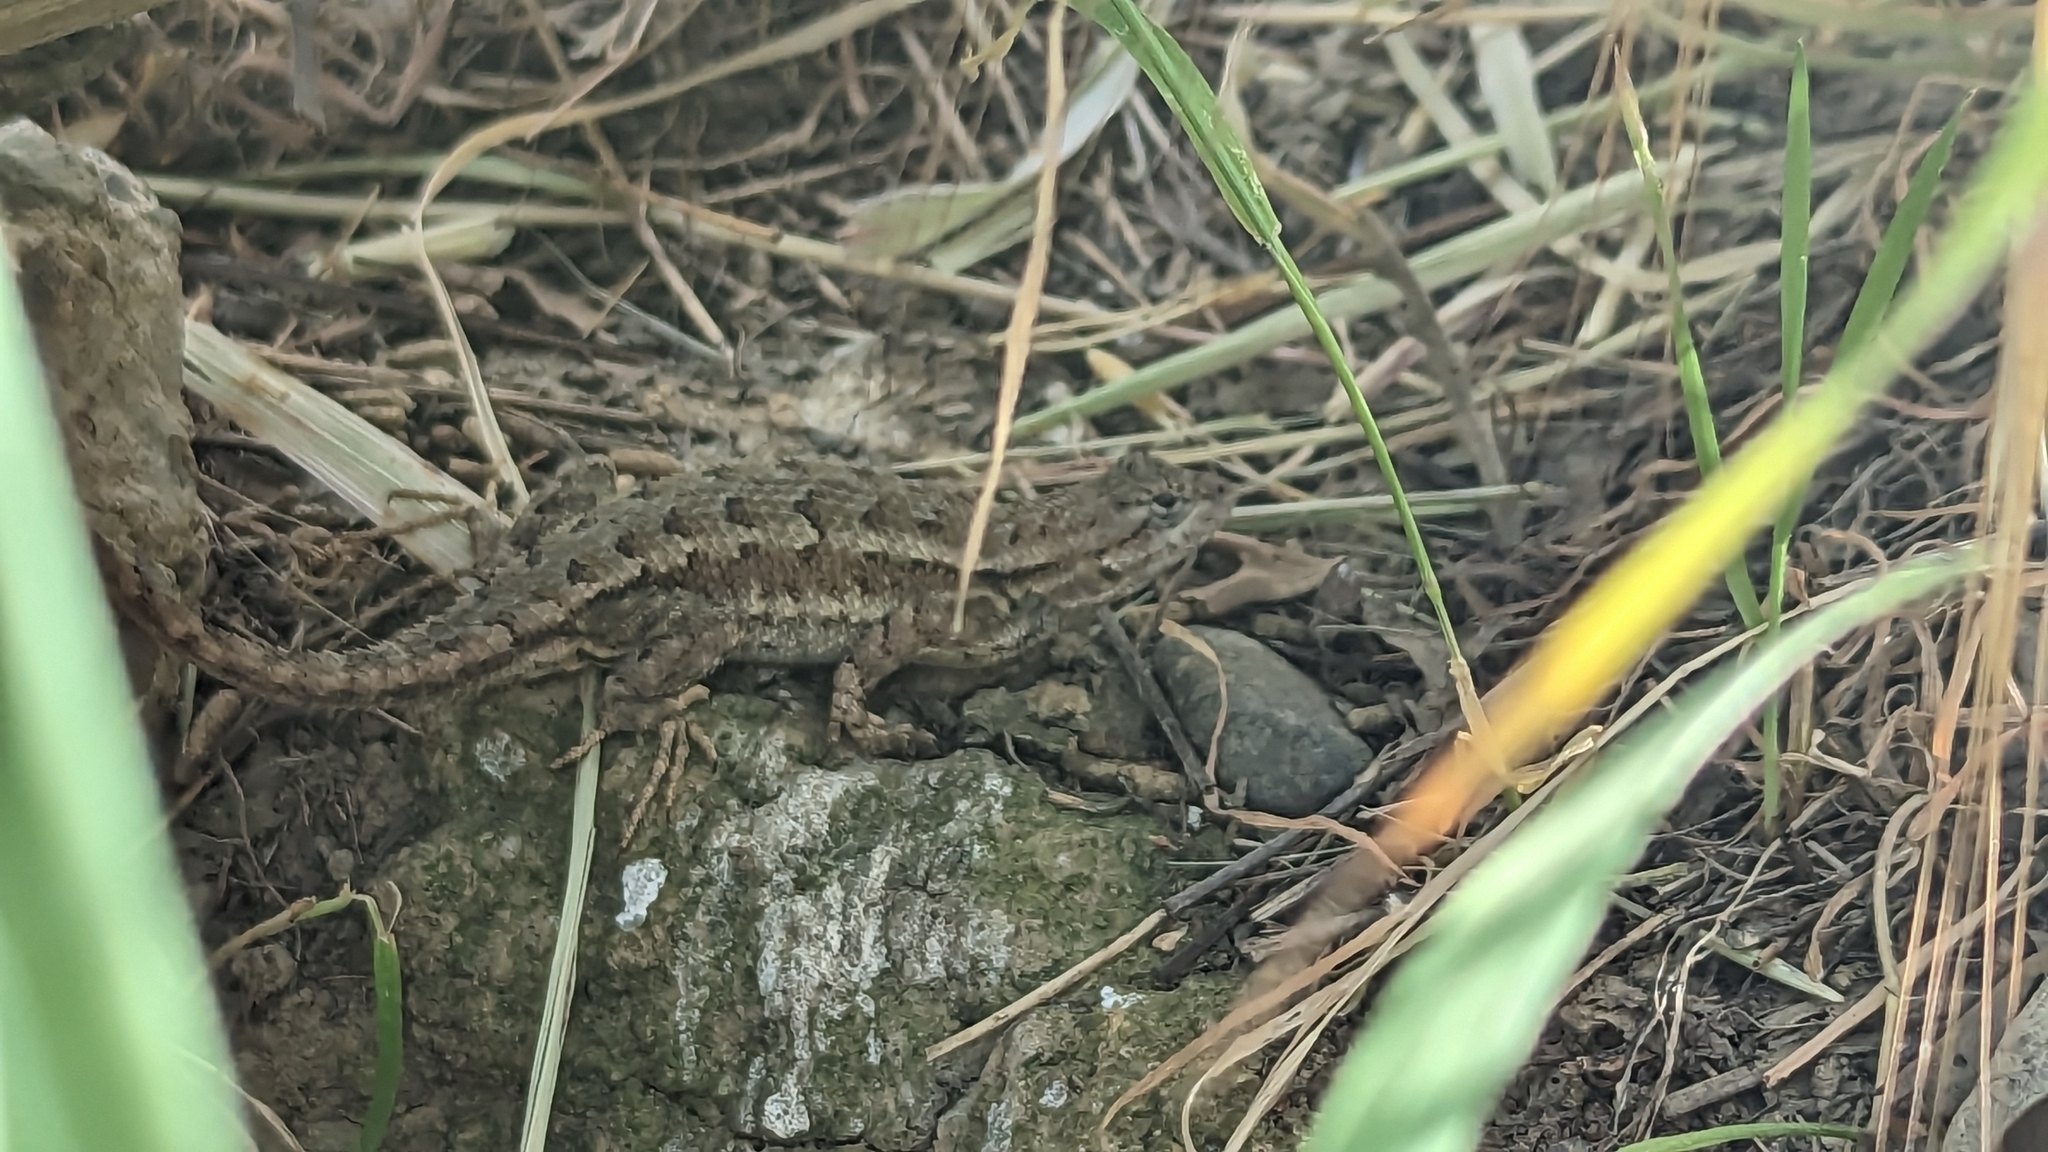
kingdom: Animalia
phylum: Chordata
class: Squamata
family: Phrynosomatidae
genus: Sceloporus
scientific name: Sceloporus occidentalis
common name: Western fence lizard
